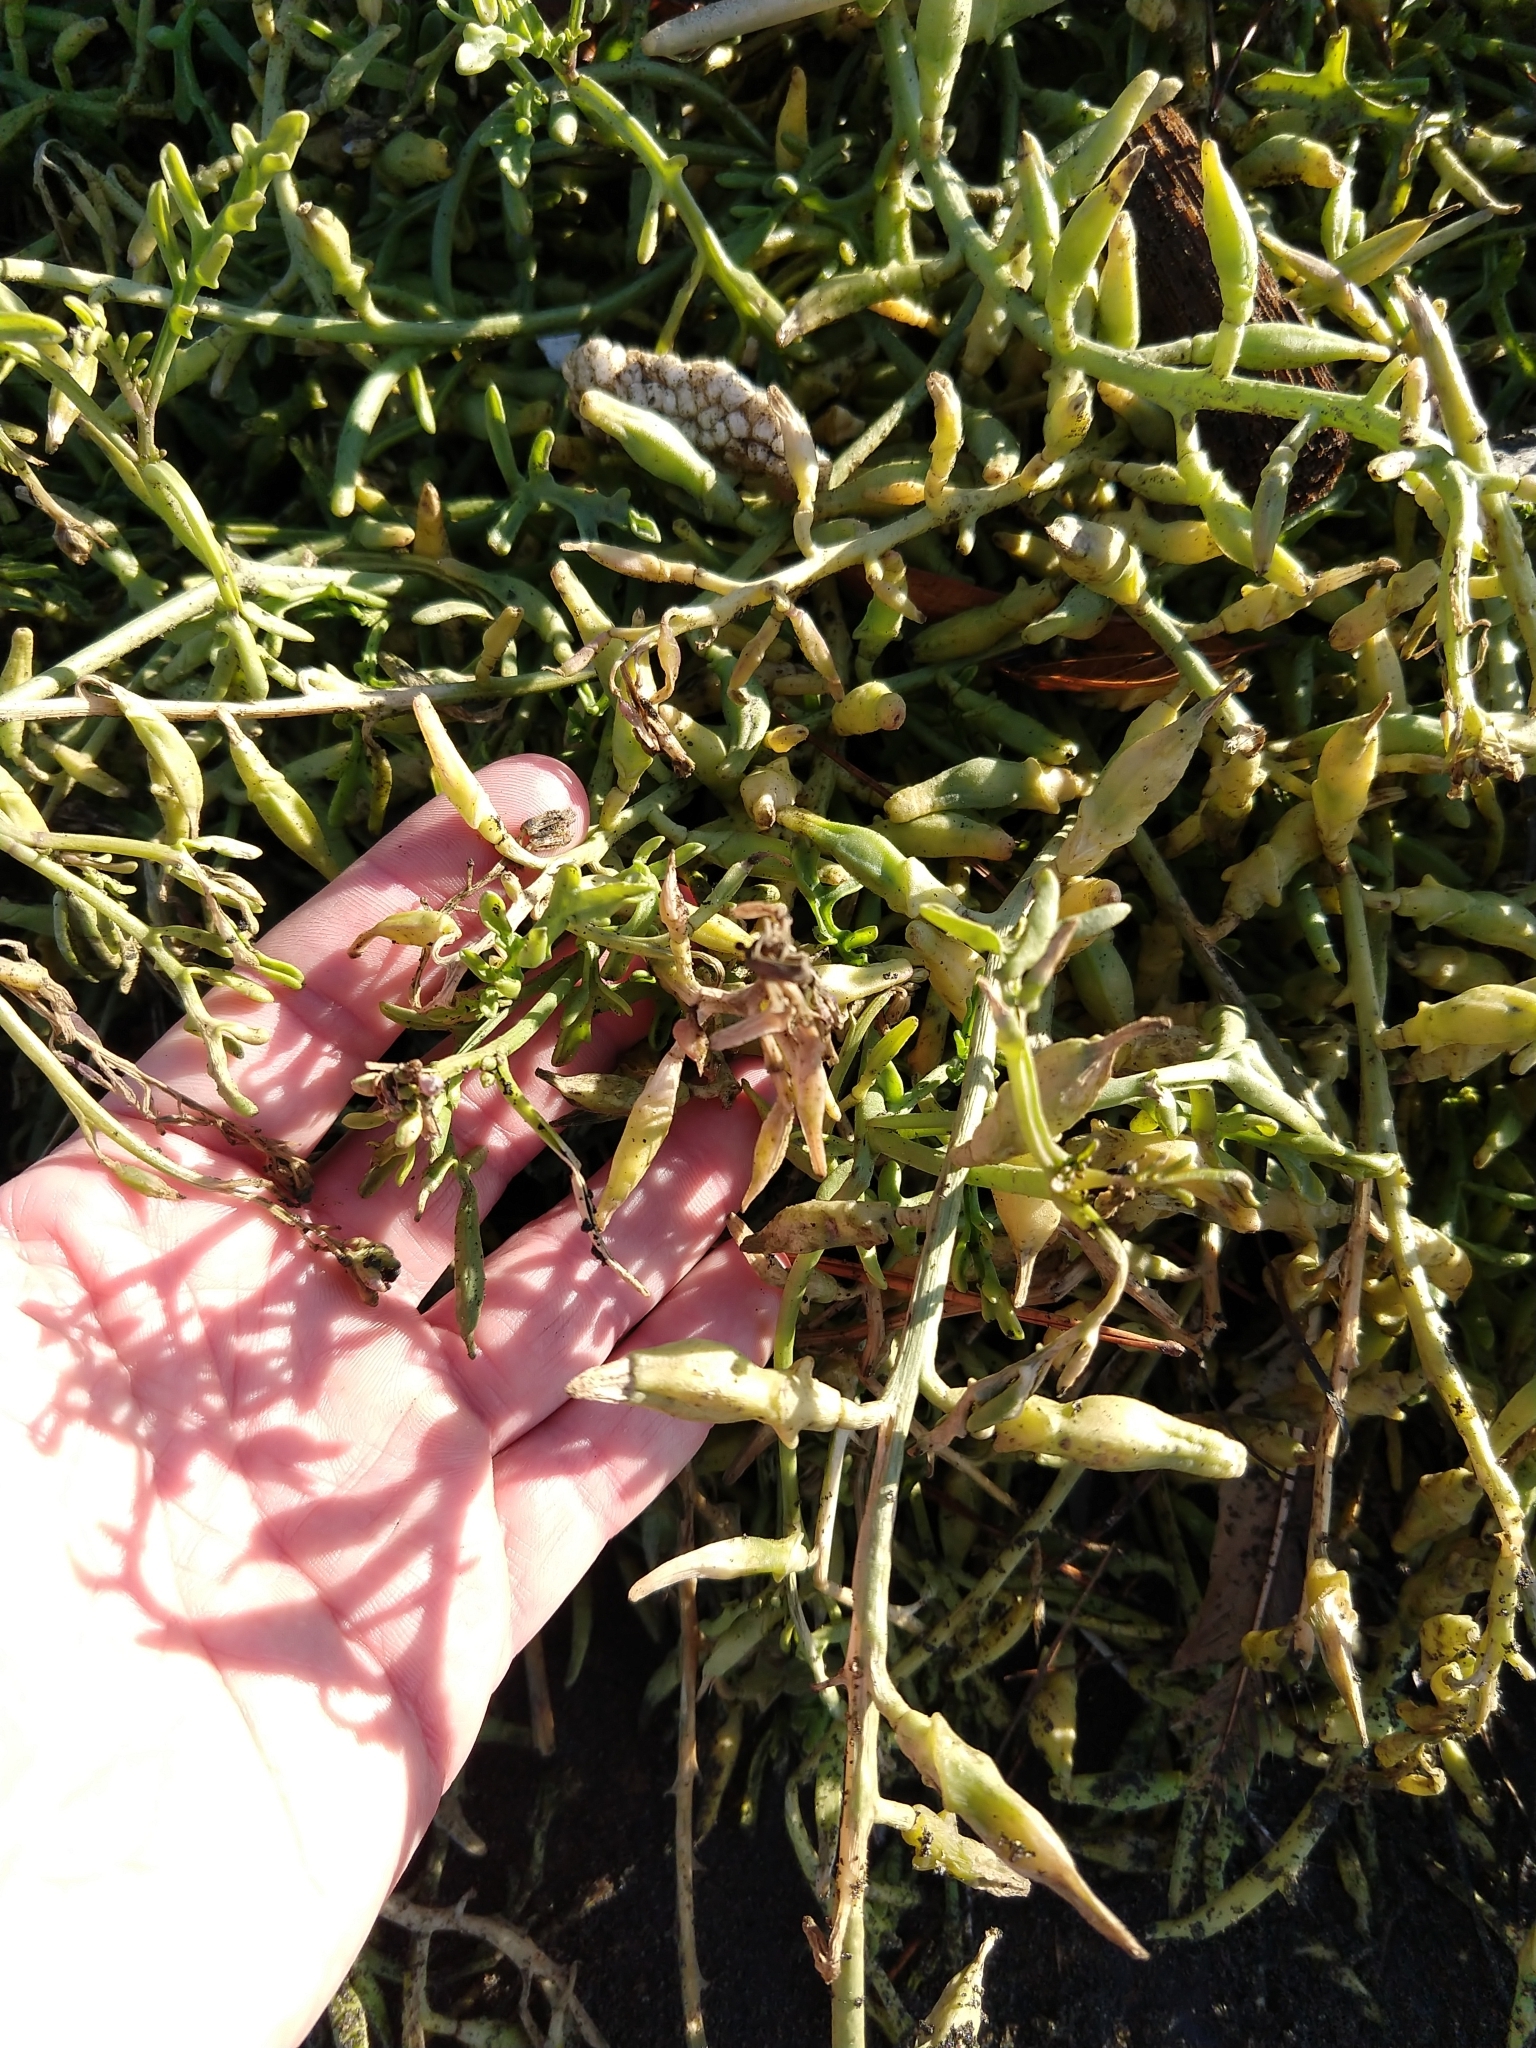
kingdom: Plantae
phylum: Tracheophyta
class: Magnoliopsida
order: Brassicales
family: Brassicaceae
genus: Cakile
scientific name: Cakile maritima
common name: Sea rocket
